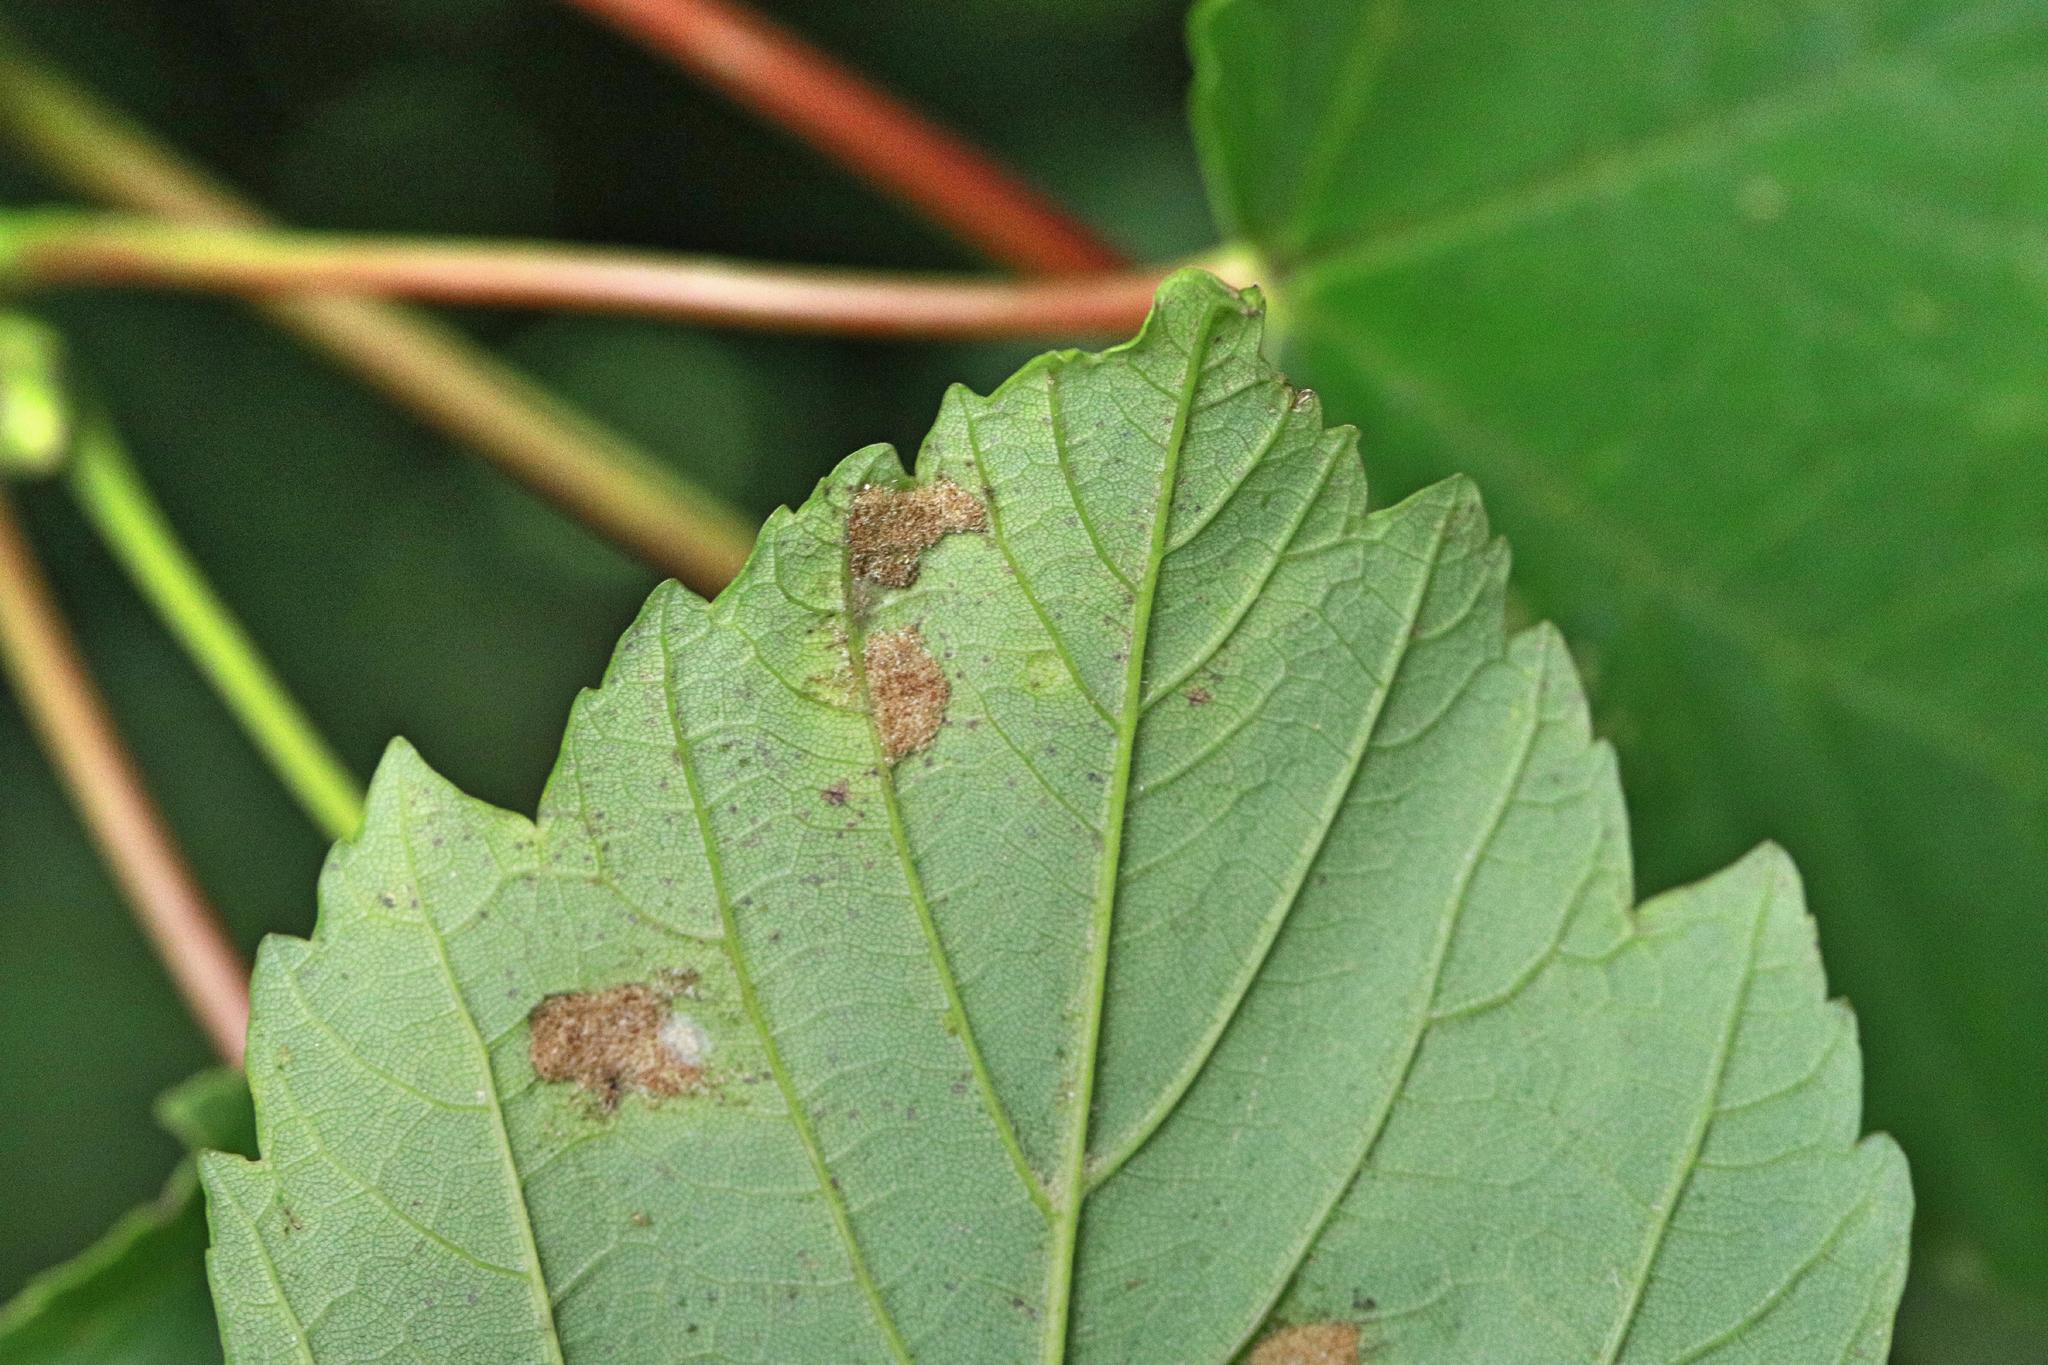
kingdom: Animalia
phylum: Arthropoda
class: Arachnida
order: Trombidiformes
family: Eriophyidae
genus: Aceria
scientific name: Aceria pseudoplatani
